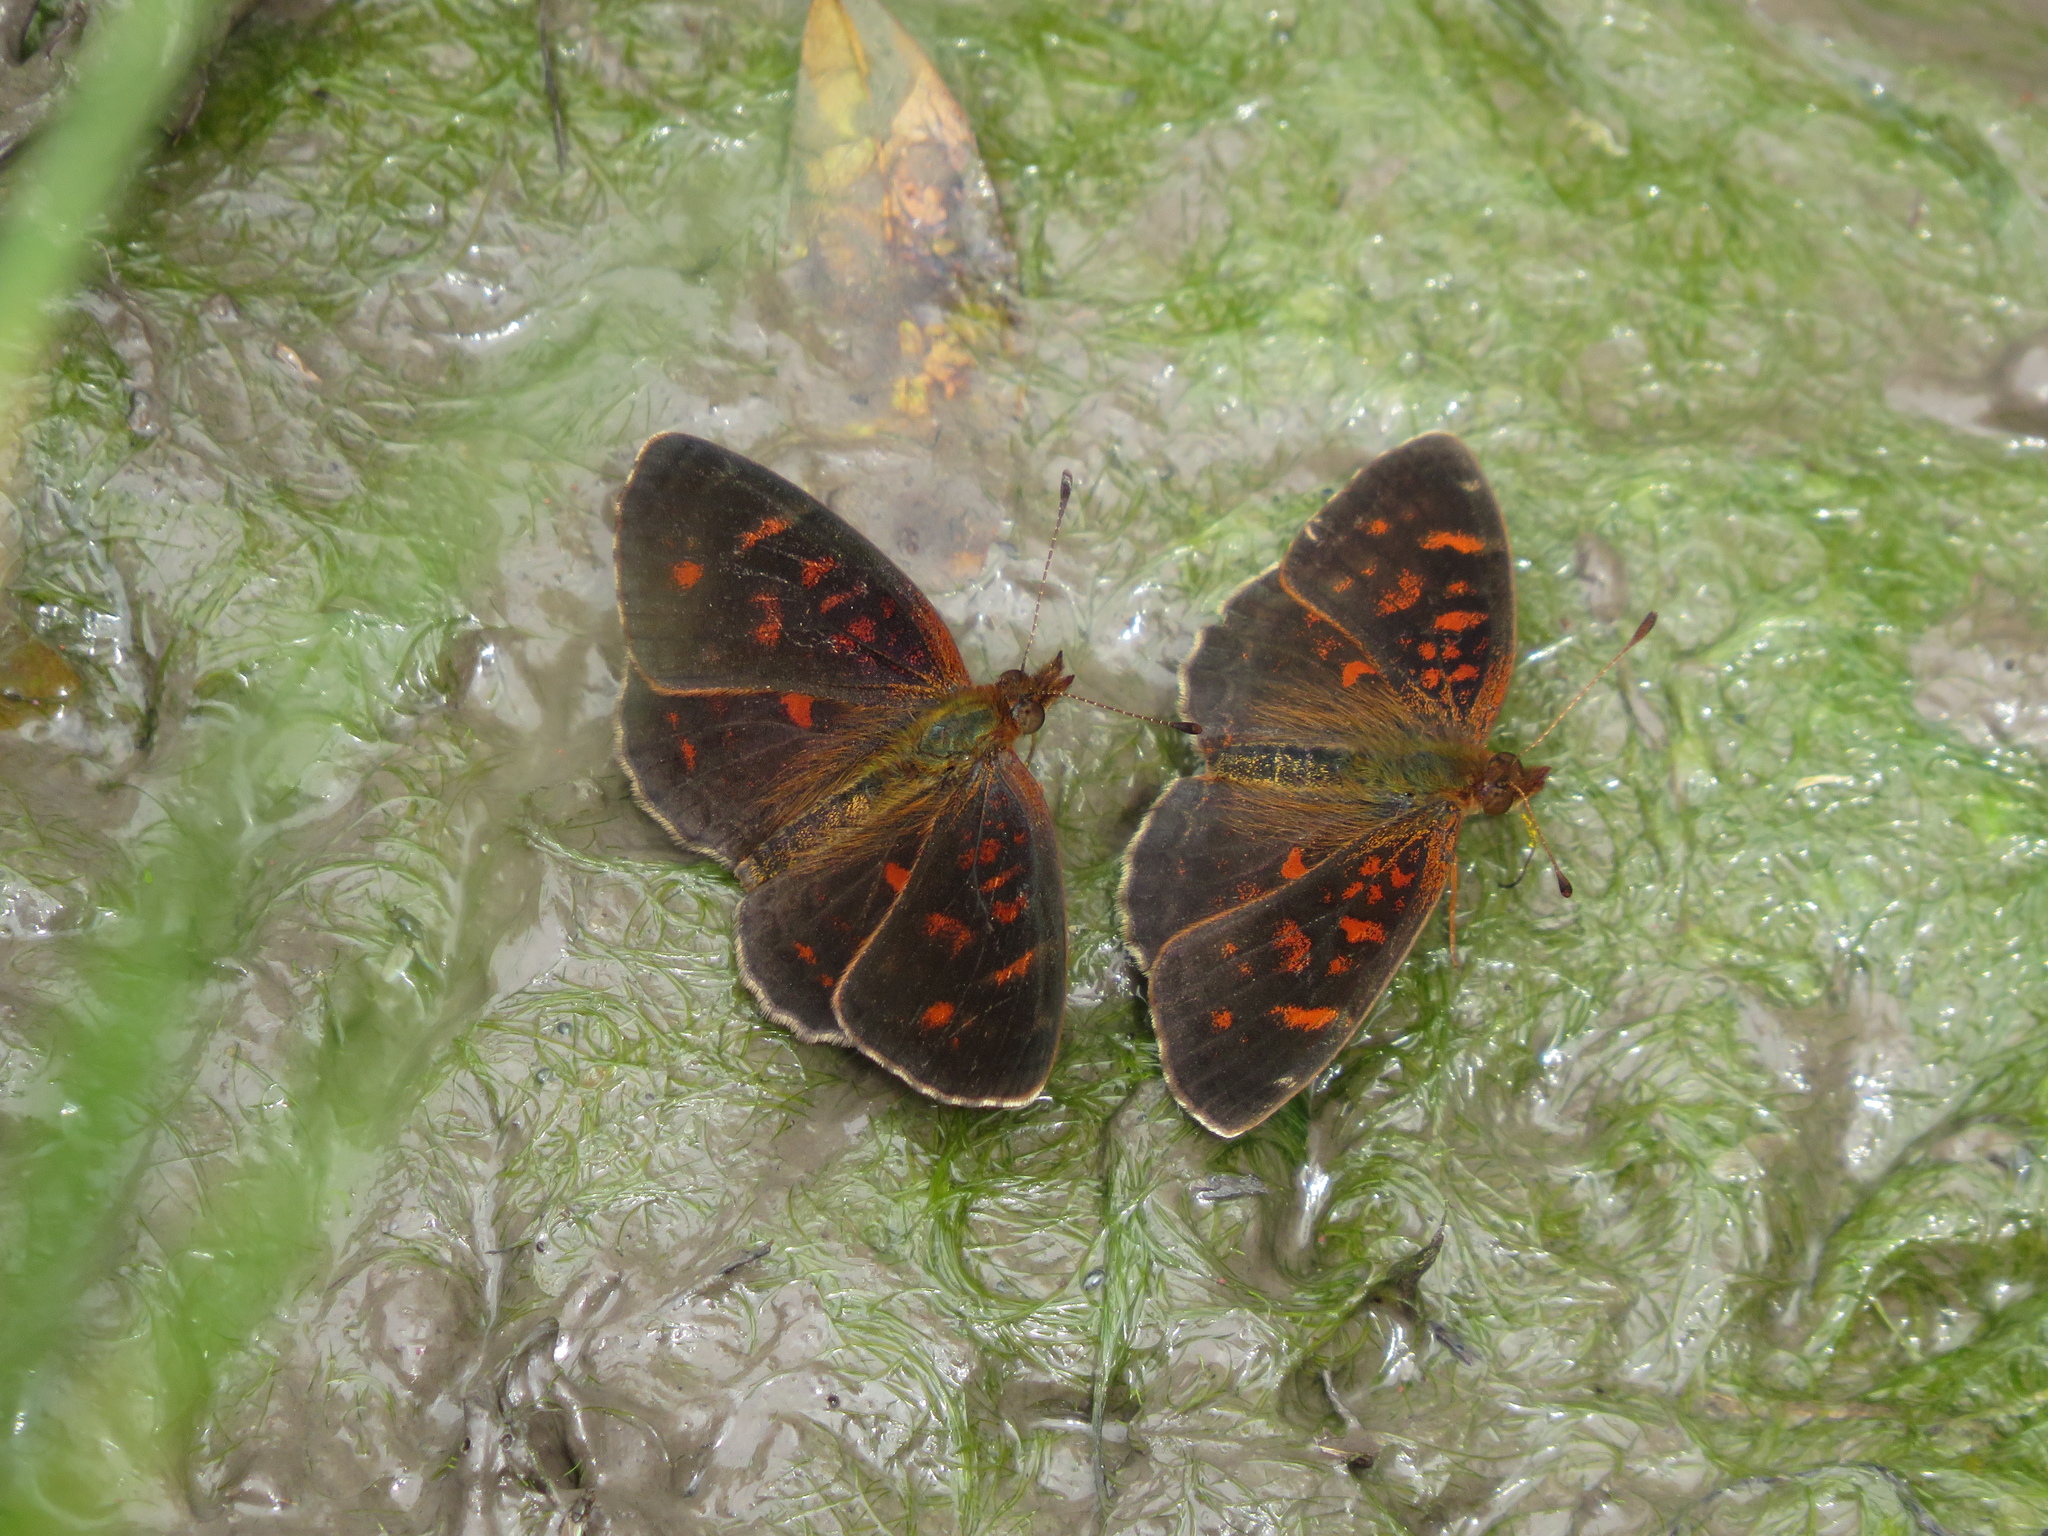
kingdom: Animalia
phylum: Arthropoda
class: Insecta
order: Lepidoptera
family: Nymphalidae
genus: Ortilia
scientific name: Ortilia velica
